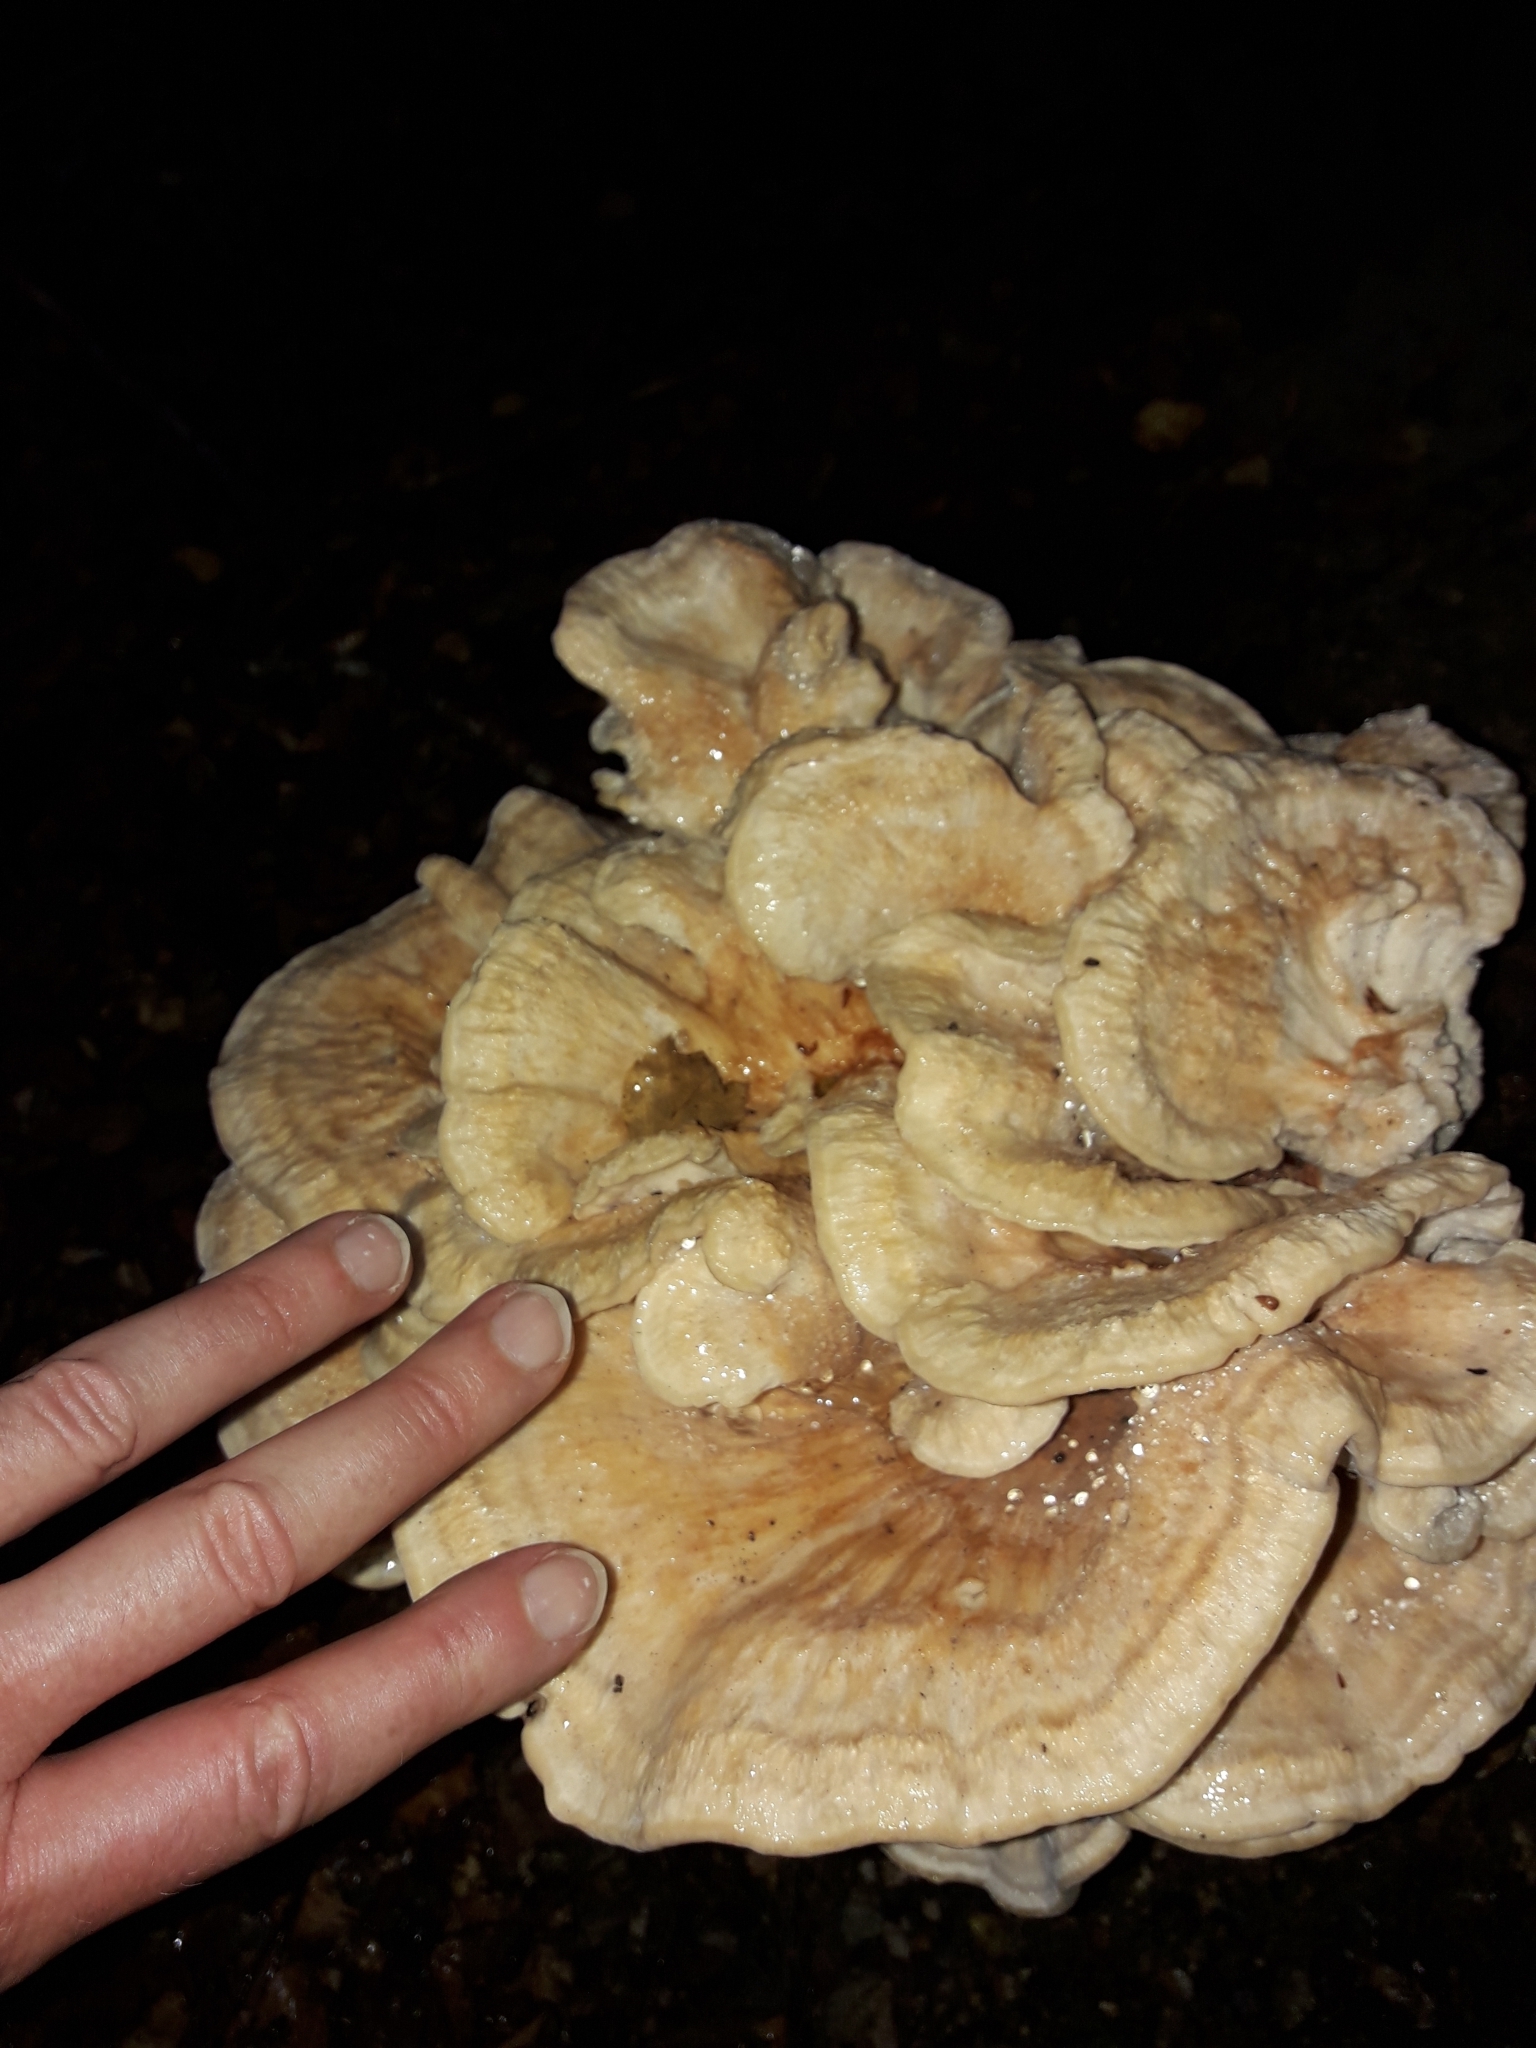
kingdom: Fungi
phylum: Basidiomycota
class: Agaricomycetes
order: Polyporales
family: Cerrenaceae
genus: Cerrena
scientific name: Cerrena zonata
